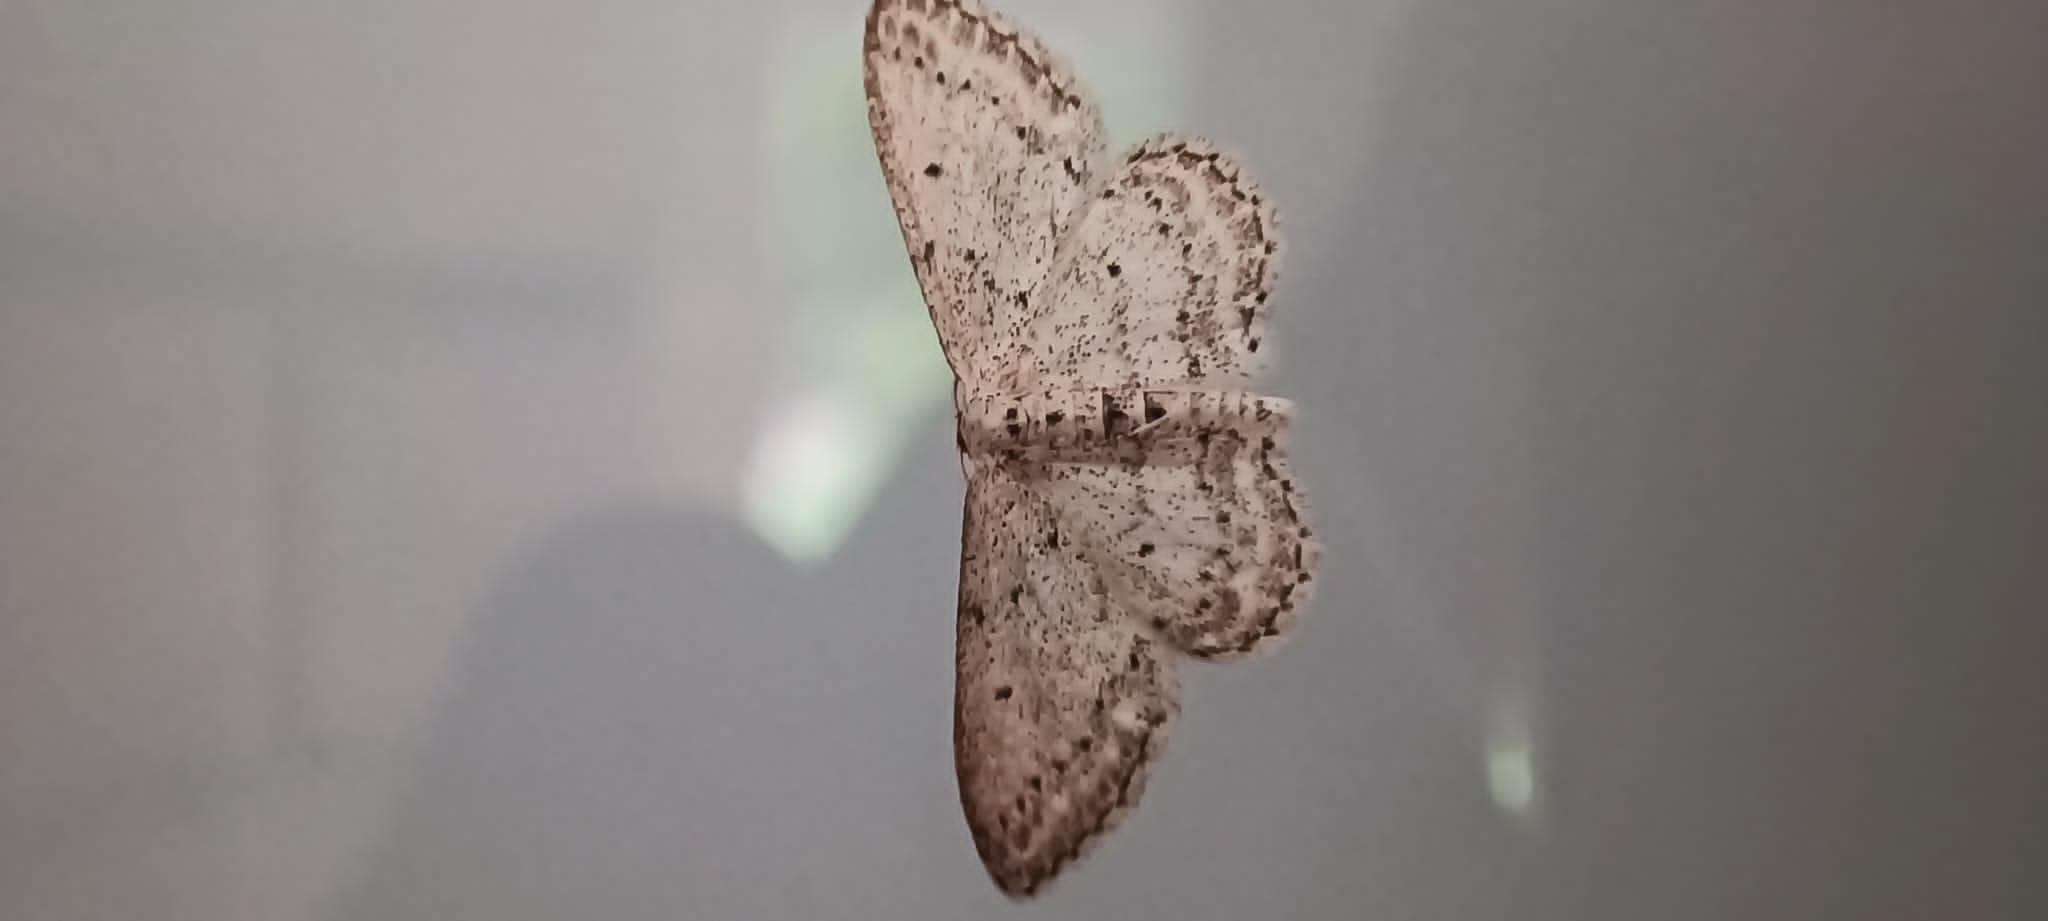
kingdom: Animalia
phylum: Arthropoda
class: Insecta
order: Lepidoptera
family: Geometridae
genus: Idaea
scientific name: Idaea seriata
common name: Small dusty wave
